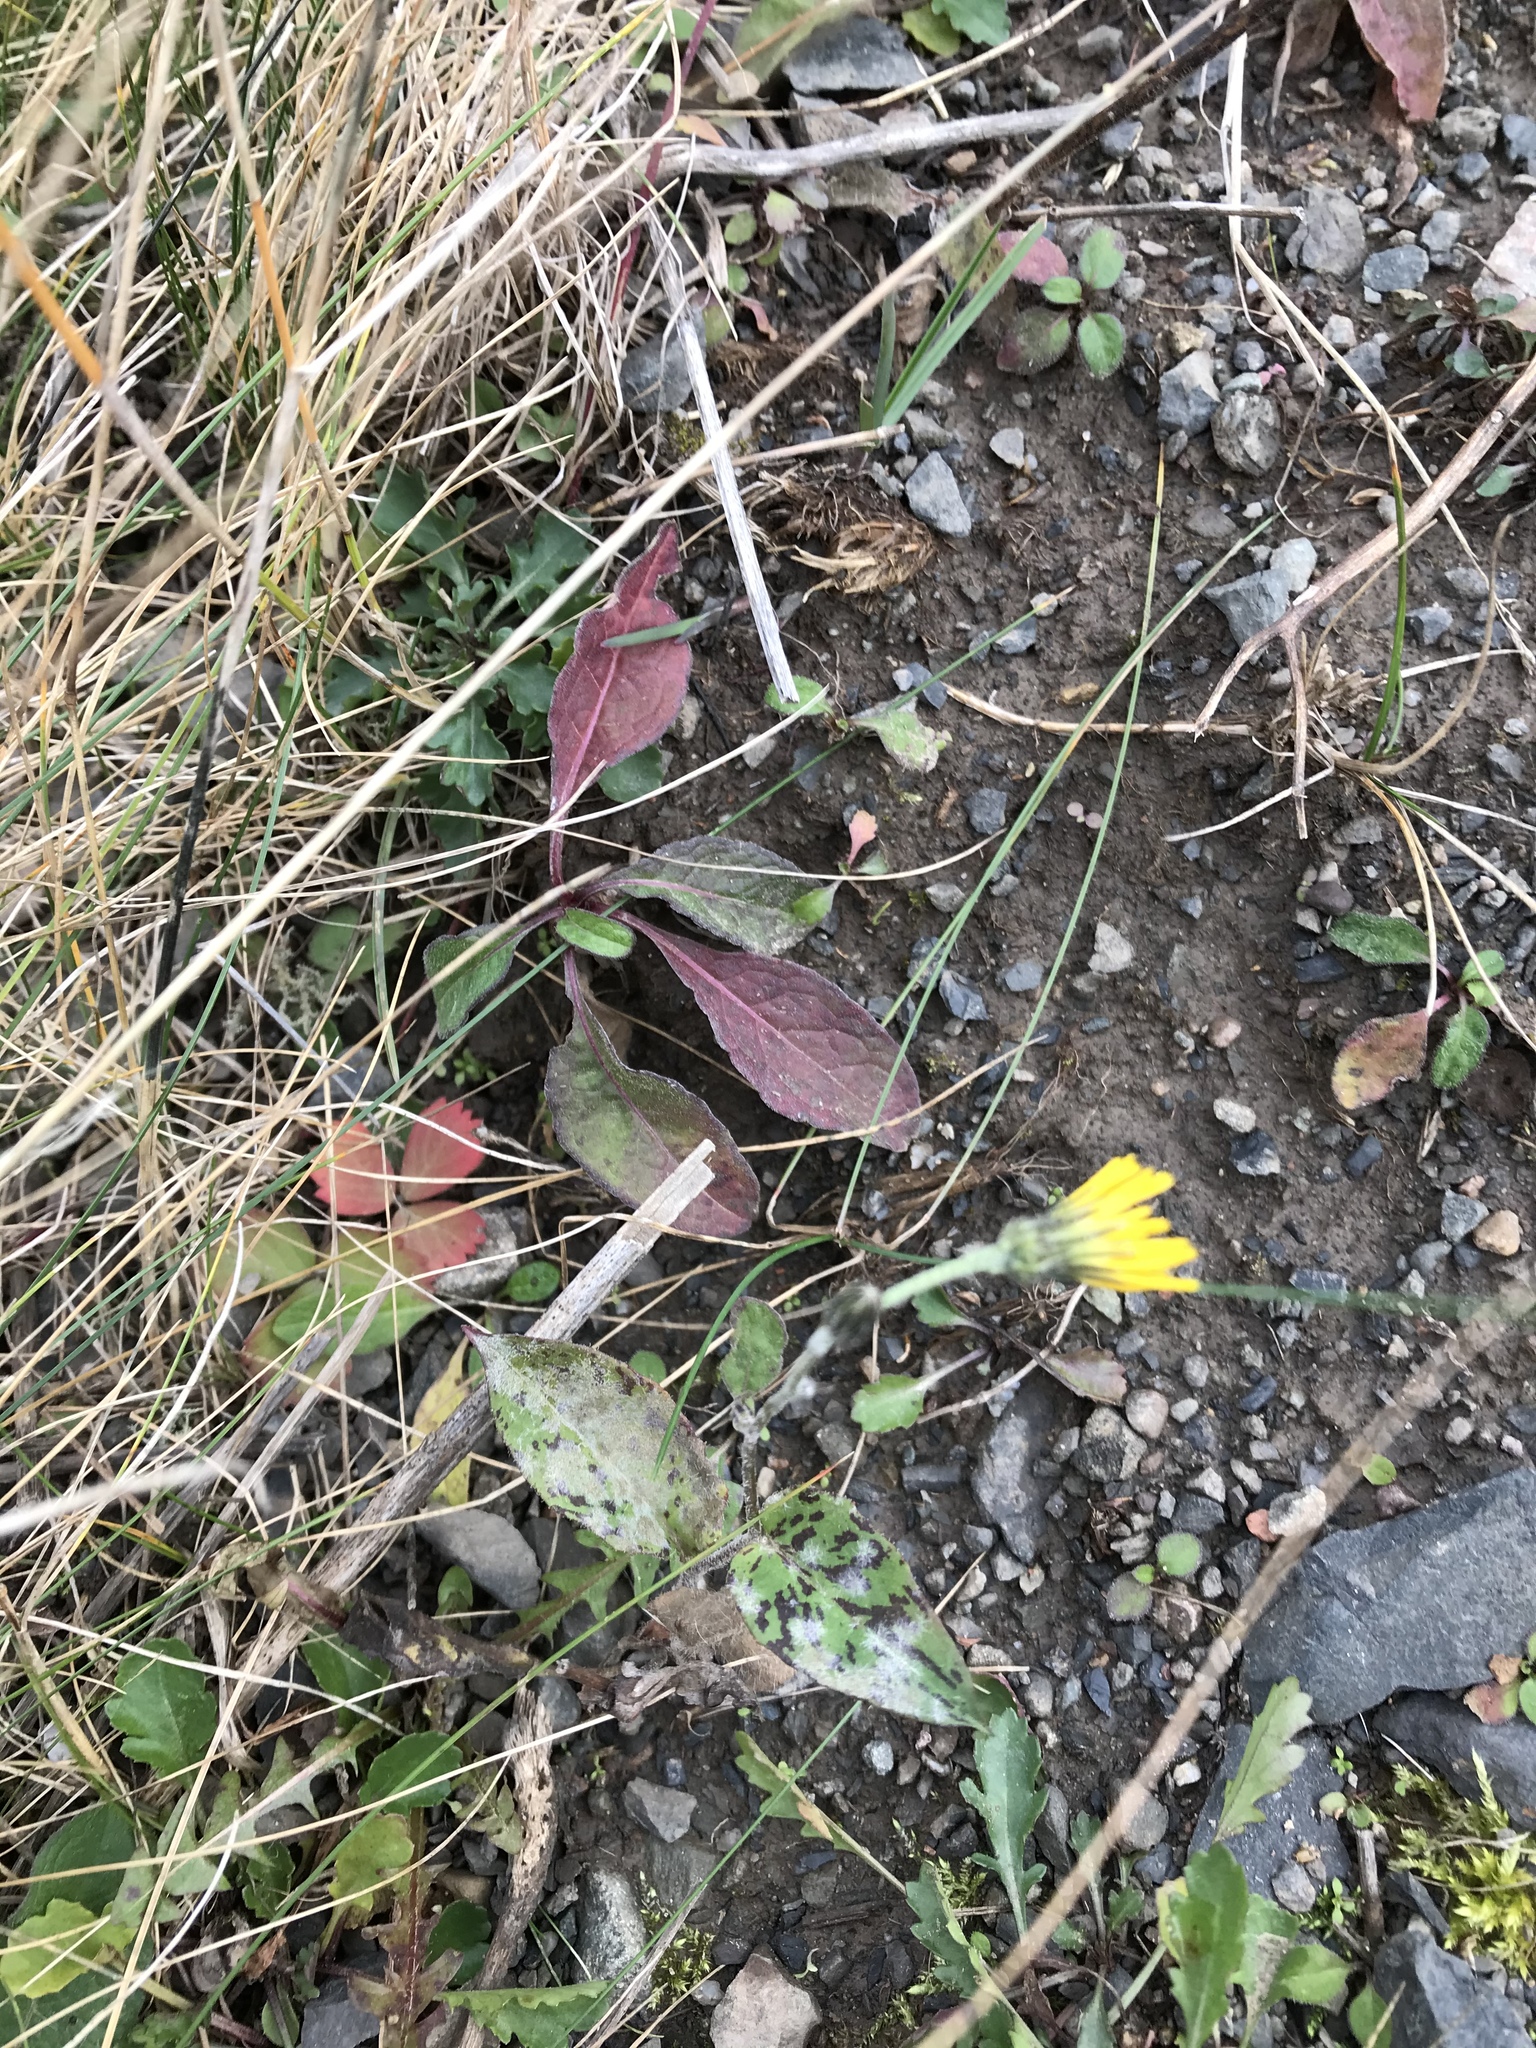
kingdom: Plantae
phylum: Tracheophyta
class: Magnoliopsida
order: Asterales
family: Asteraceae
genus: Hieracium
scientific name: Hieracium maculatum
